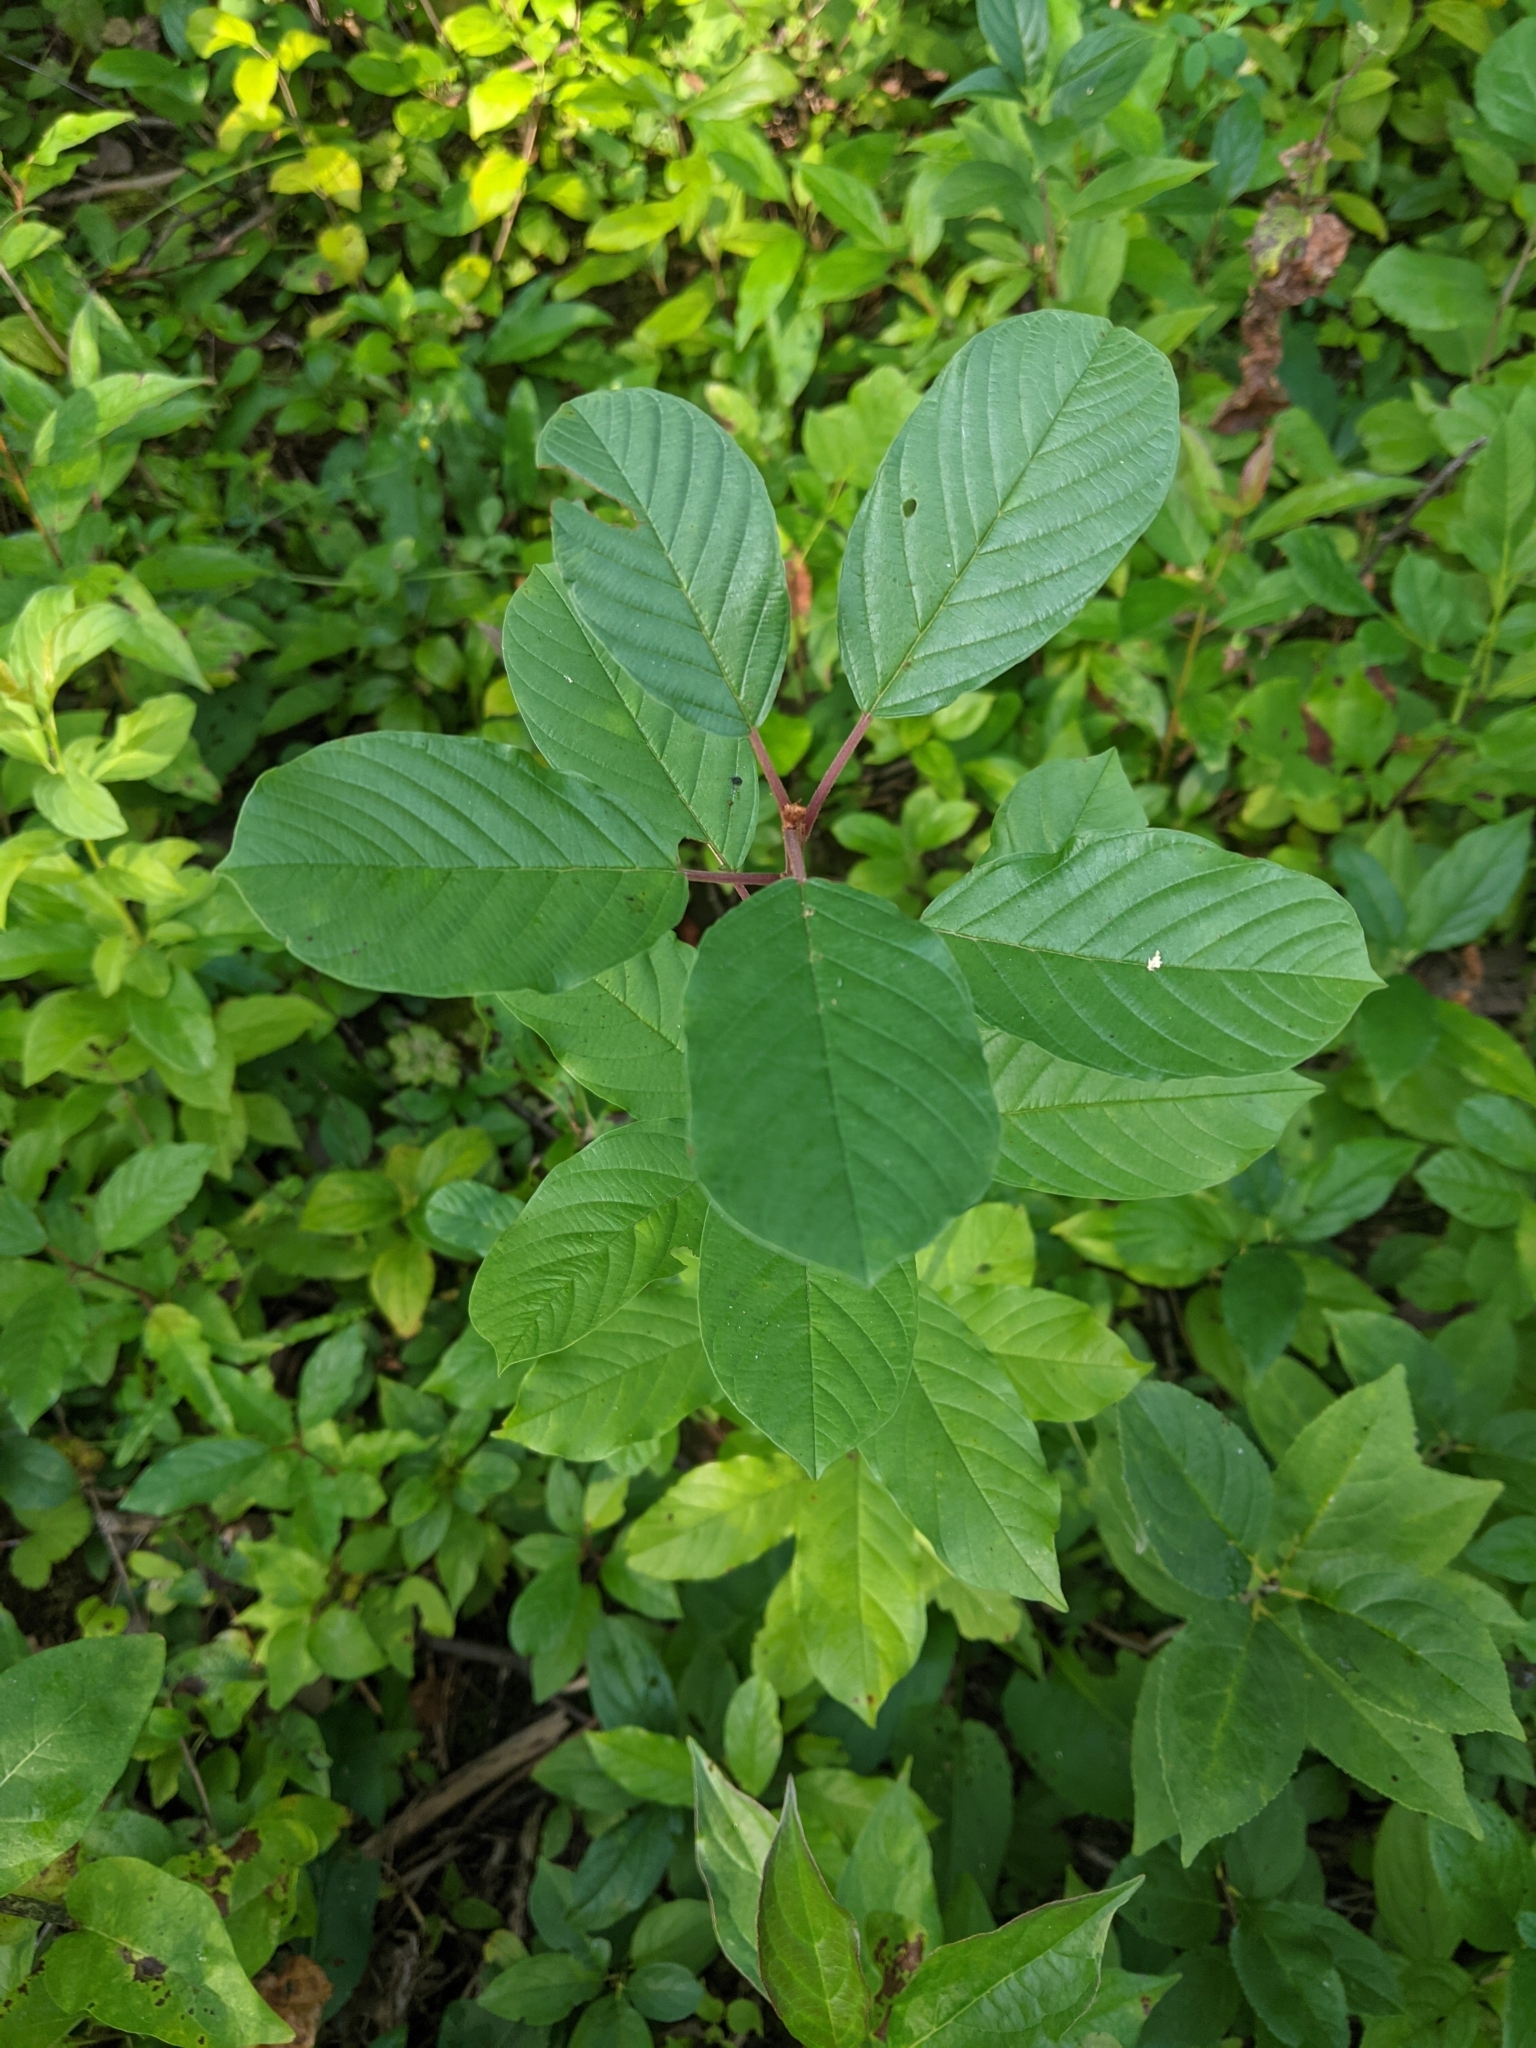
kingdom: Plantae
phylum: Tracheophyta
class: Magnoliopsida
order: Rosales
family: Rhamnaceae
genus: Frangula
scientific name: Frangula alnus
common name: Alder buckthorn
